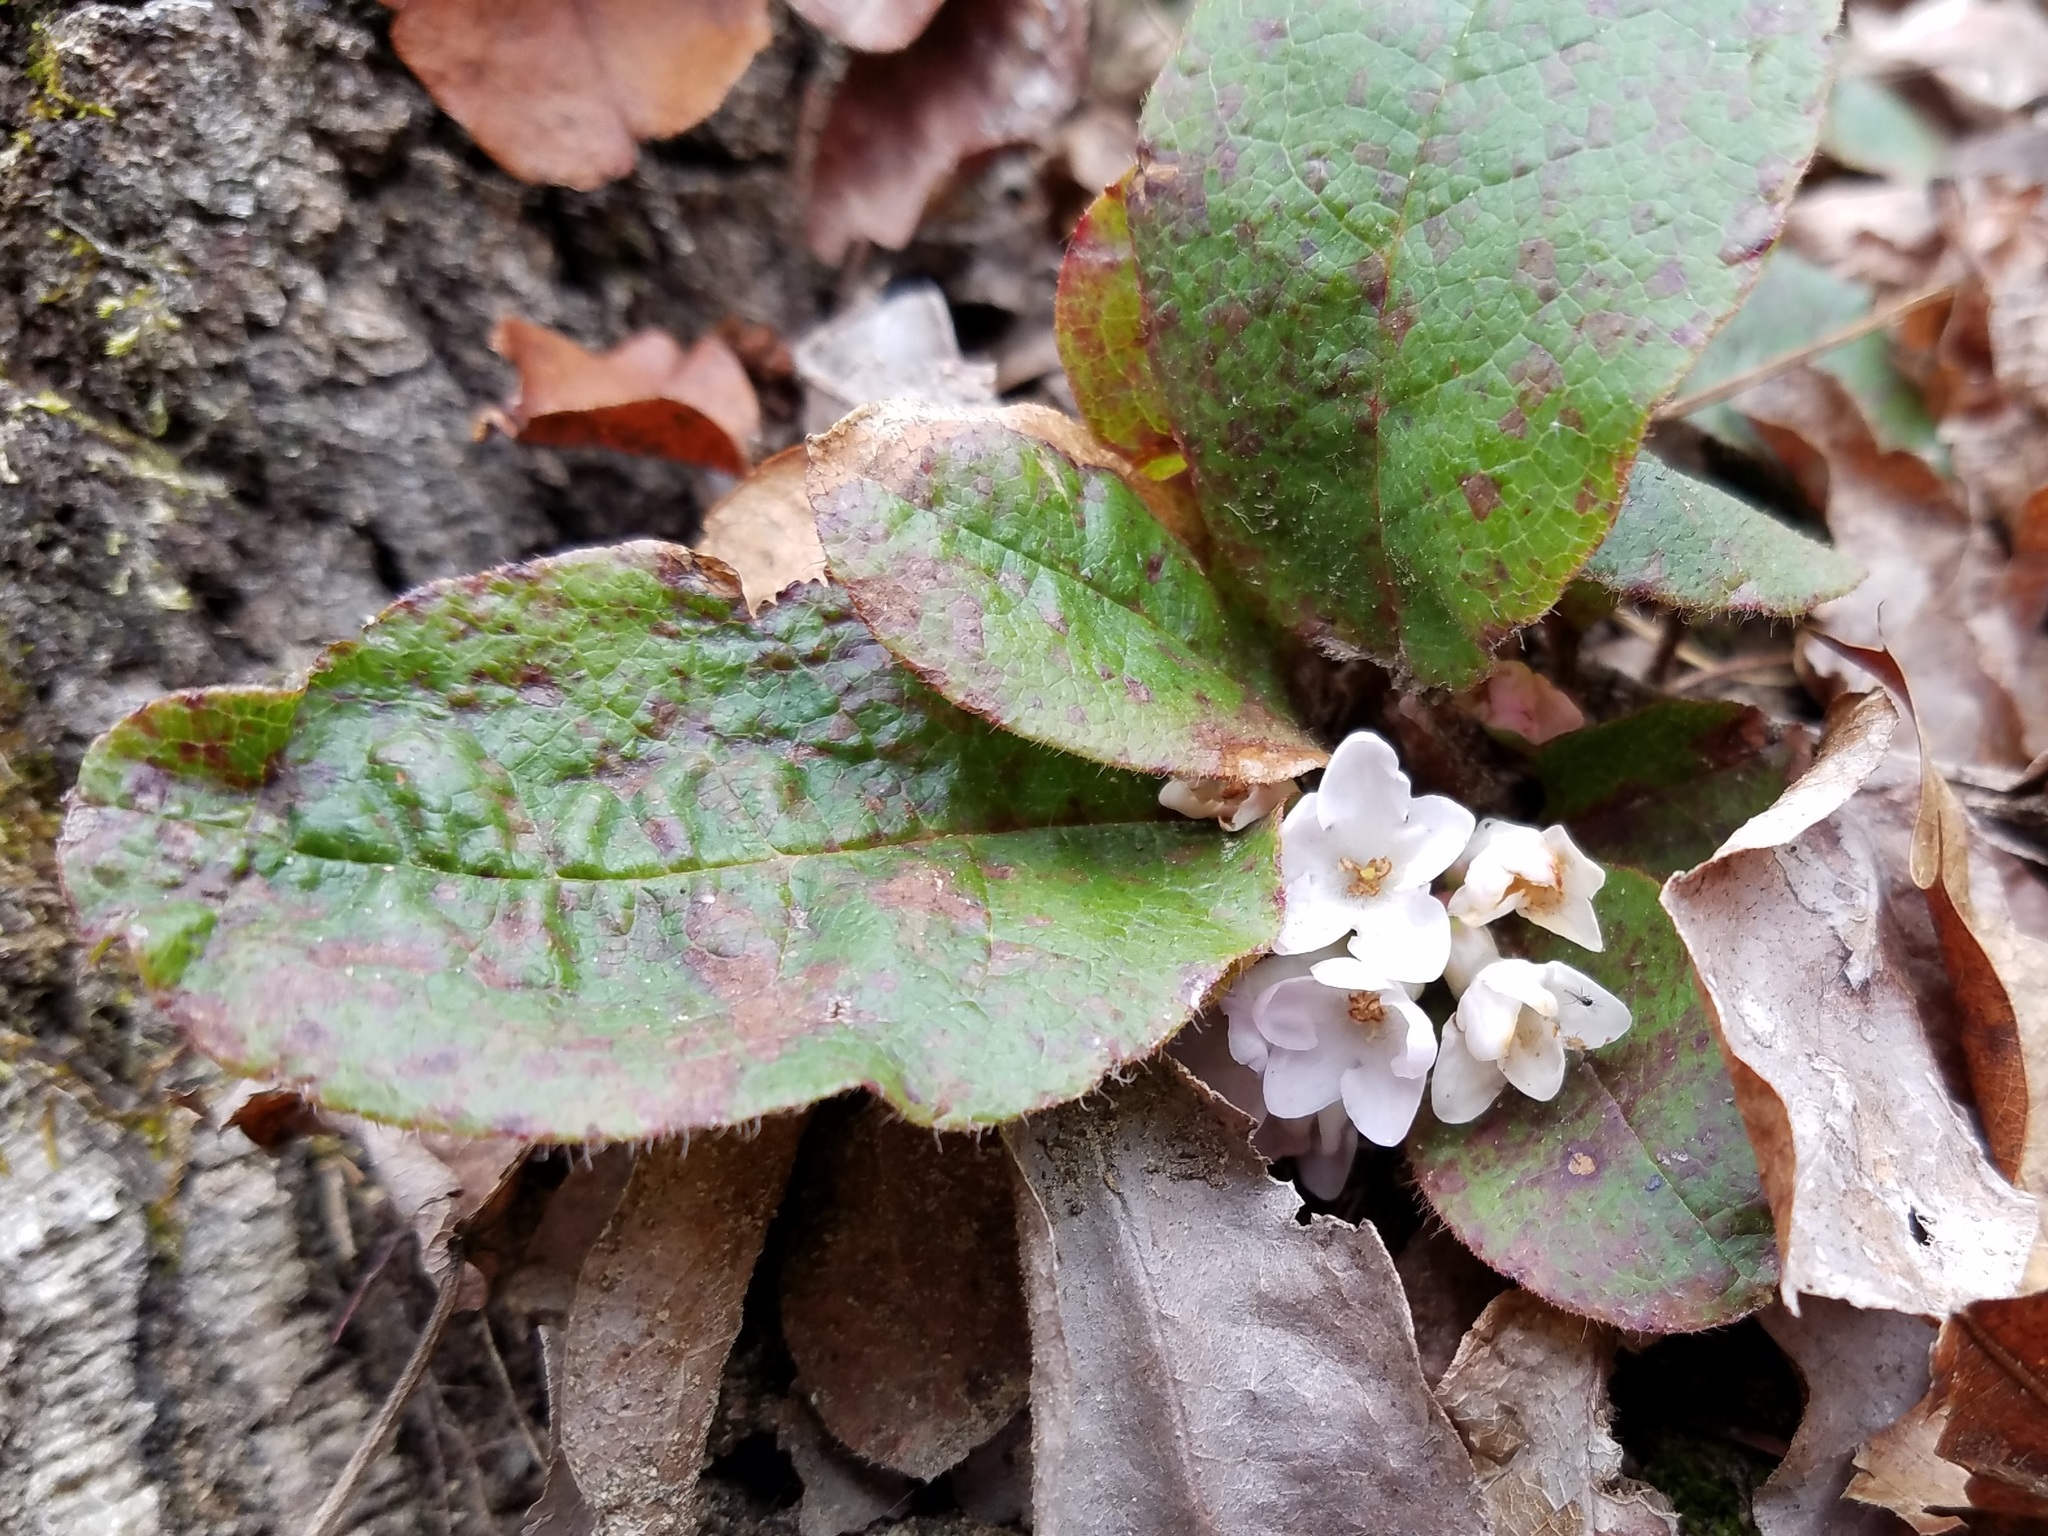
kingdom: Plantae
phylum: Tracheophyta
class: Magnoliopsida
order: Ericales
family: Ericaceae
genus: Epigaea
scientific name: Epigaea repens
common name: Gravelroot
